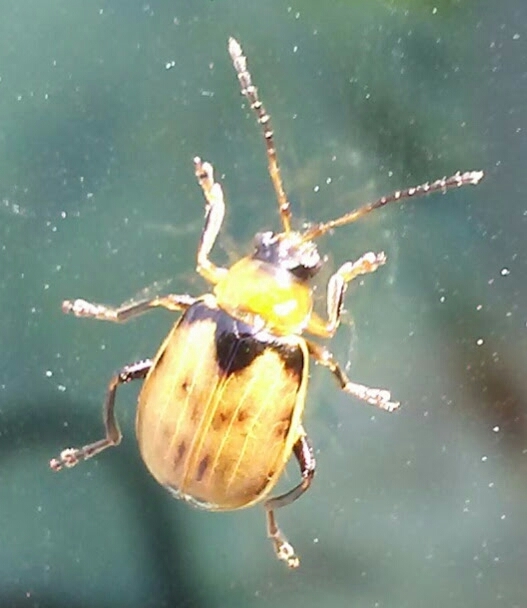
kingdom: Animalia
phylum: Arthropoda
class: Insecta
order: Coleoptera
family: Chrysomelidae
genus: Cerotoma
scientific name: Cerotoma trifurcata
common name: Bean leaf beetle
